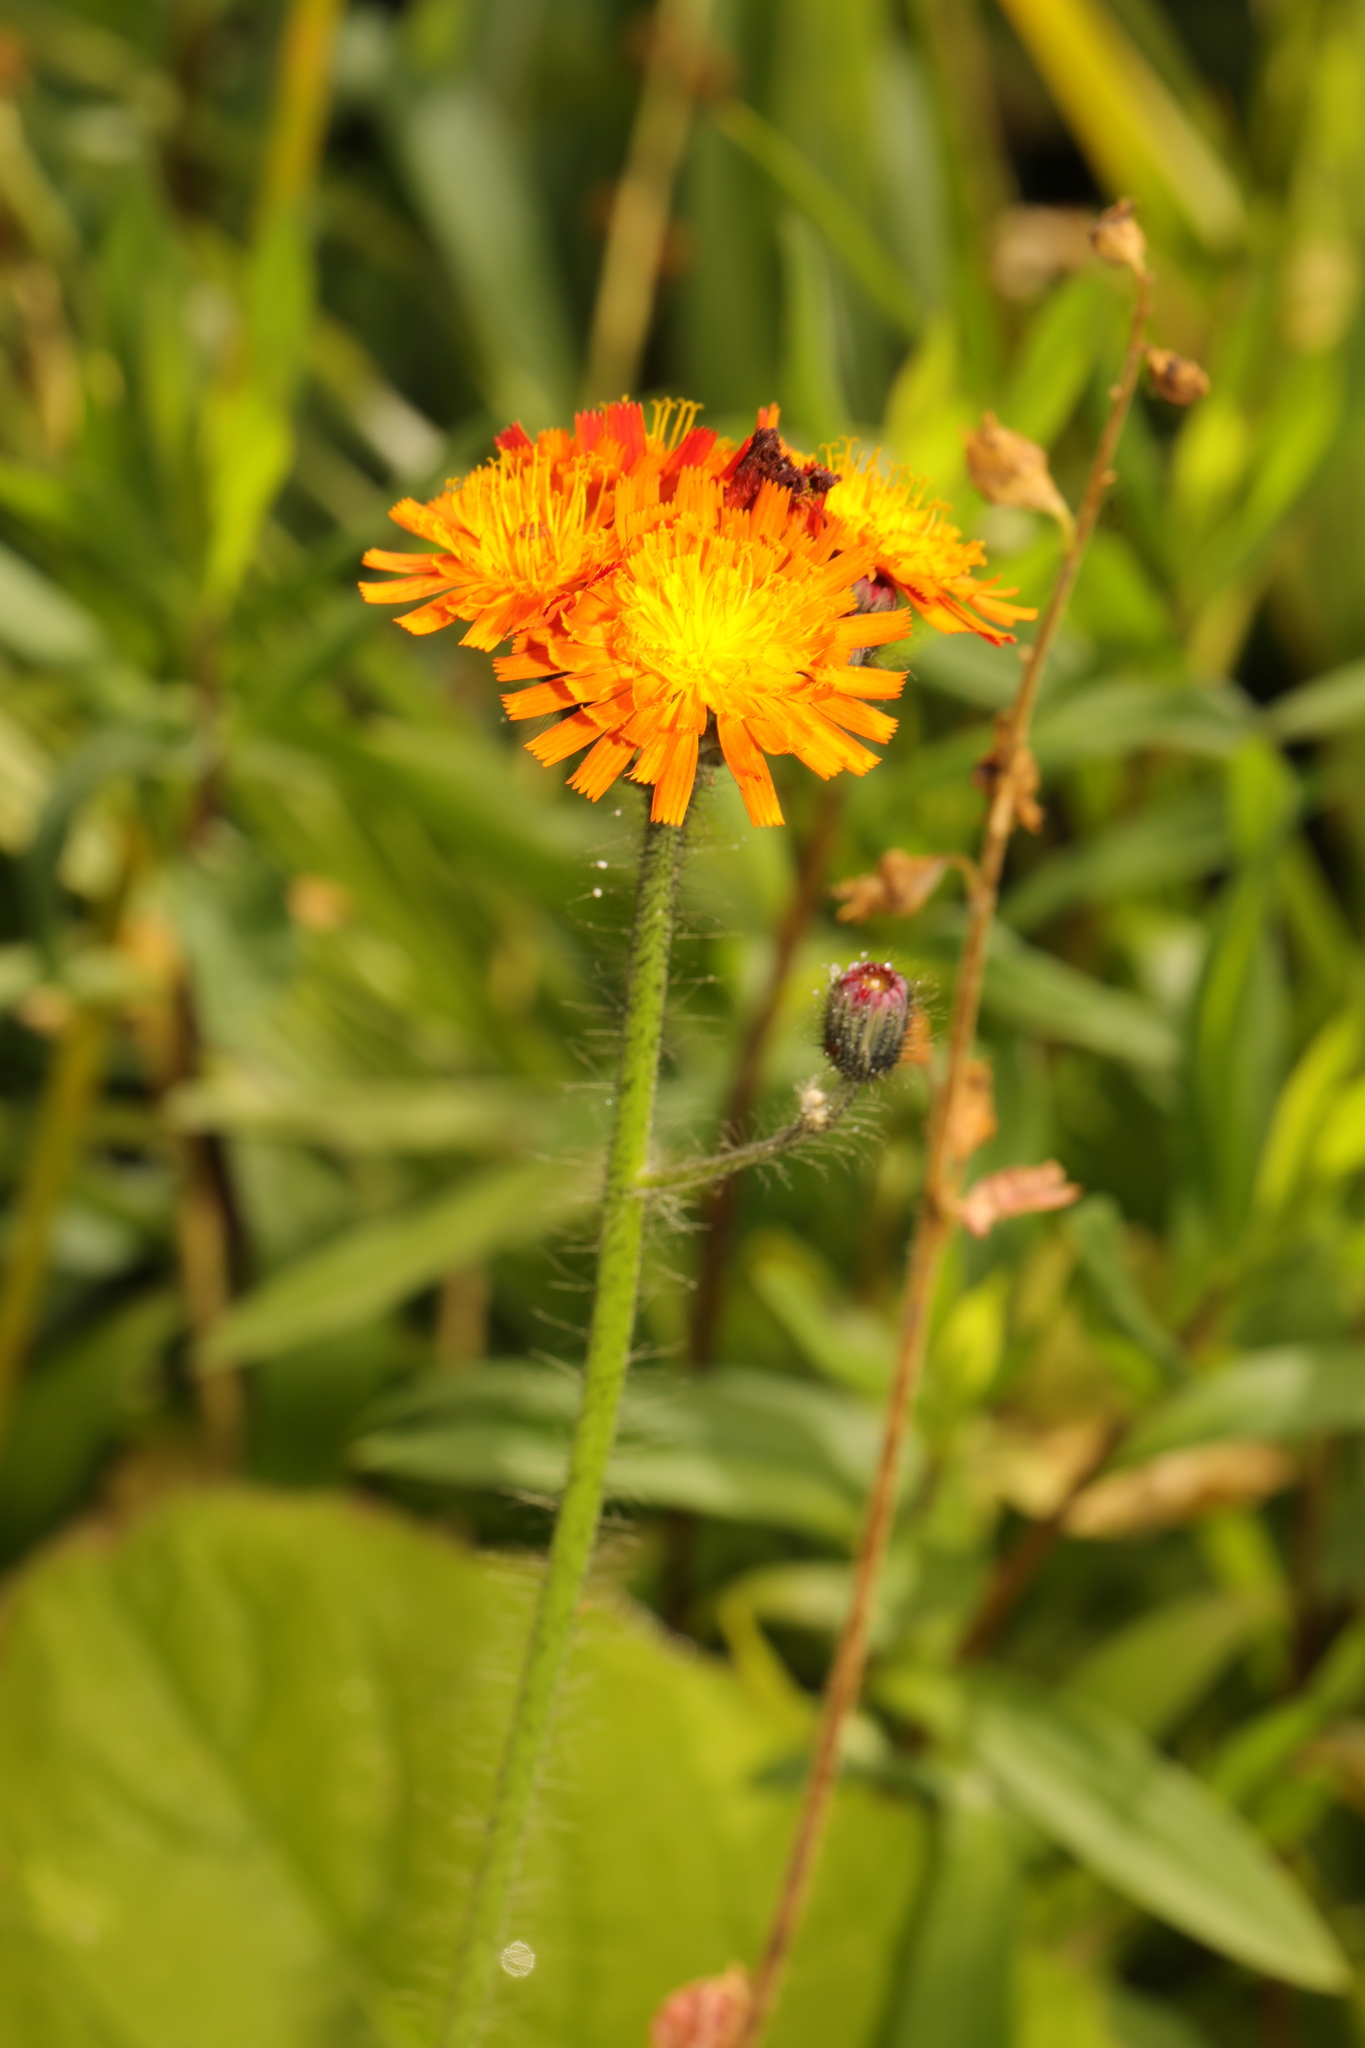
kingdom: Plantae
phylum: Tracheophyta
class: Magnoliopsida
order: Asterales
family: Asteraceae
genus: Pilosella
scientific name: Pilosella aurantiaca
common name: Fox-and-cubs
